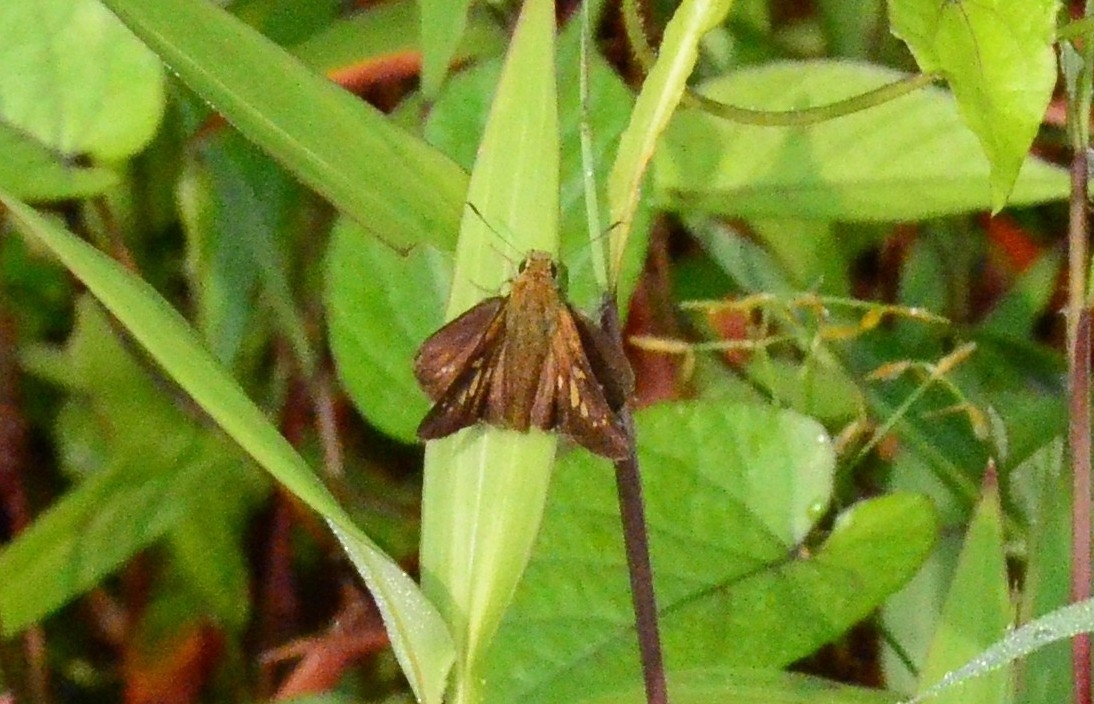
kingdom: Animalia
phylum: Arthropoda
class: Insecta
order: Lepidoptera
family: Hesperiidae
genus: Polytremis
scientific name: Polytremis lubricans
